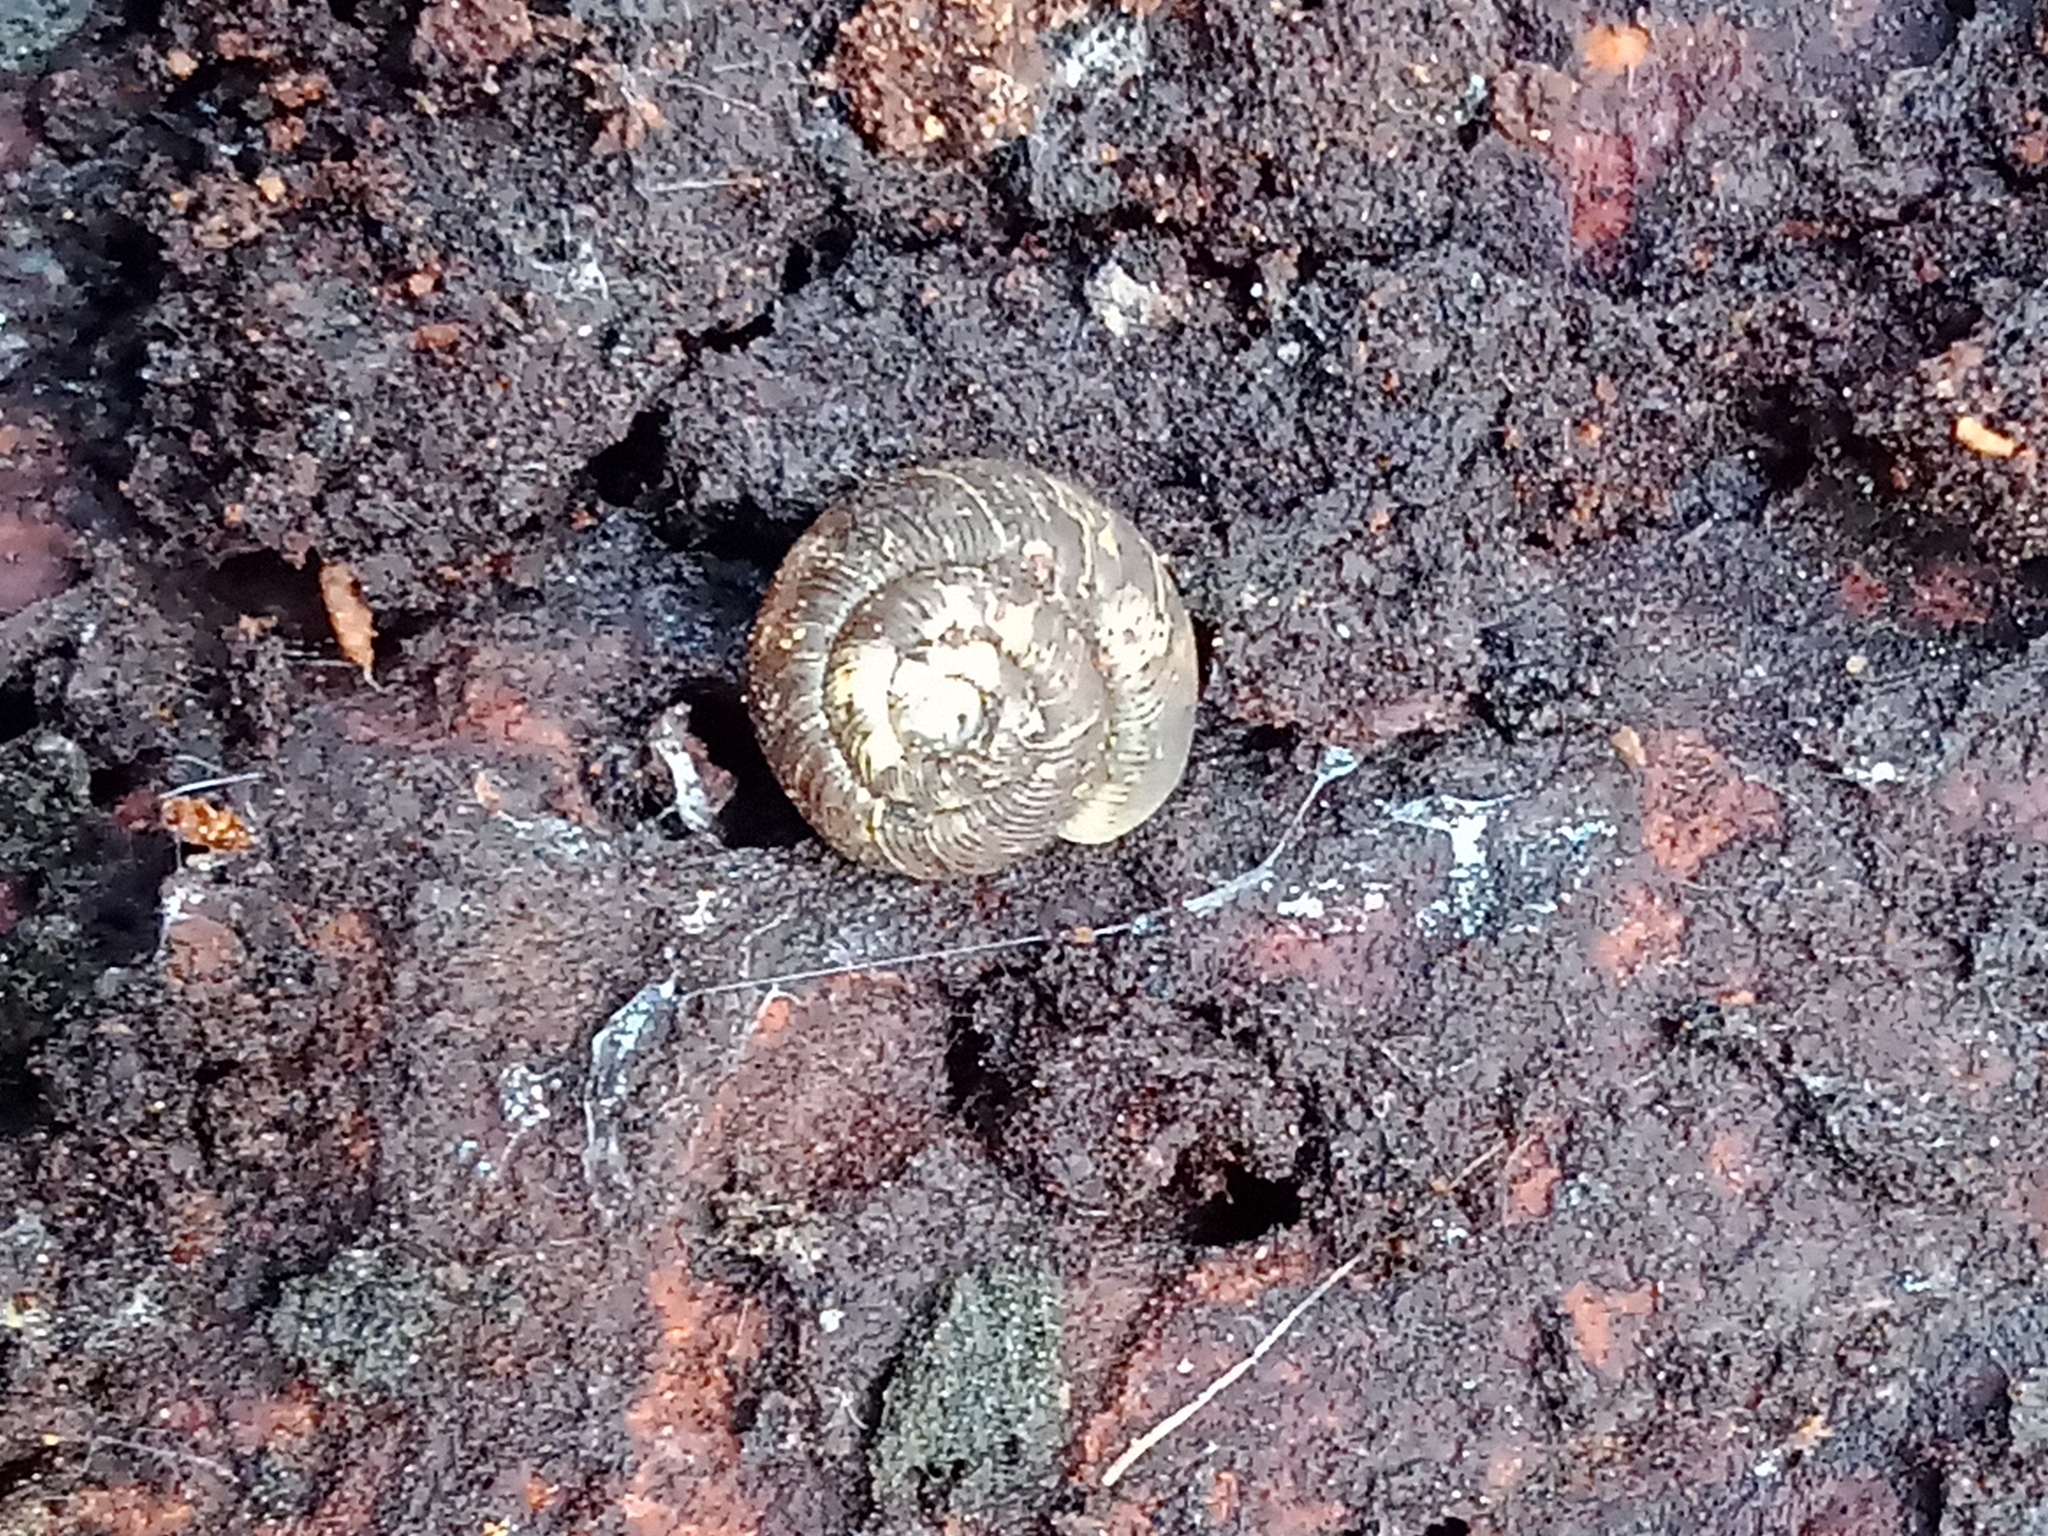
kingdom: Animalia
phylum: Mollusca
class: Gastropoda
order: Stylommatophora
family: Discidae
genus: Discus
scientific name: Discus ruderatus
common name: Brown disc snail
